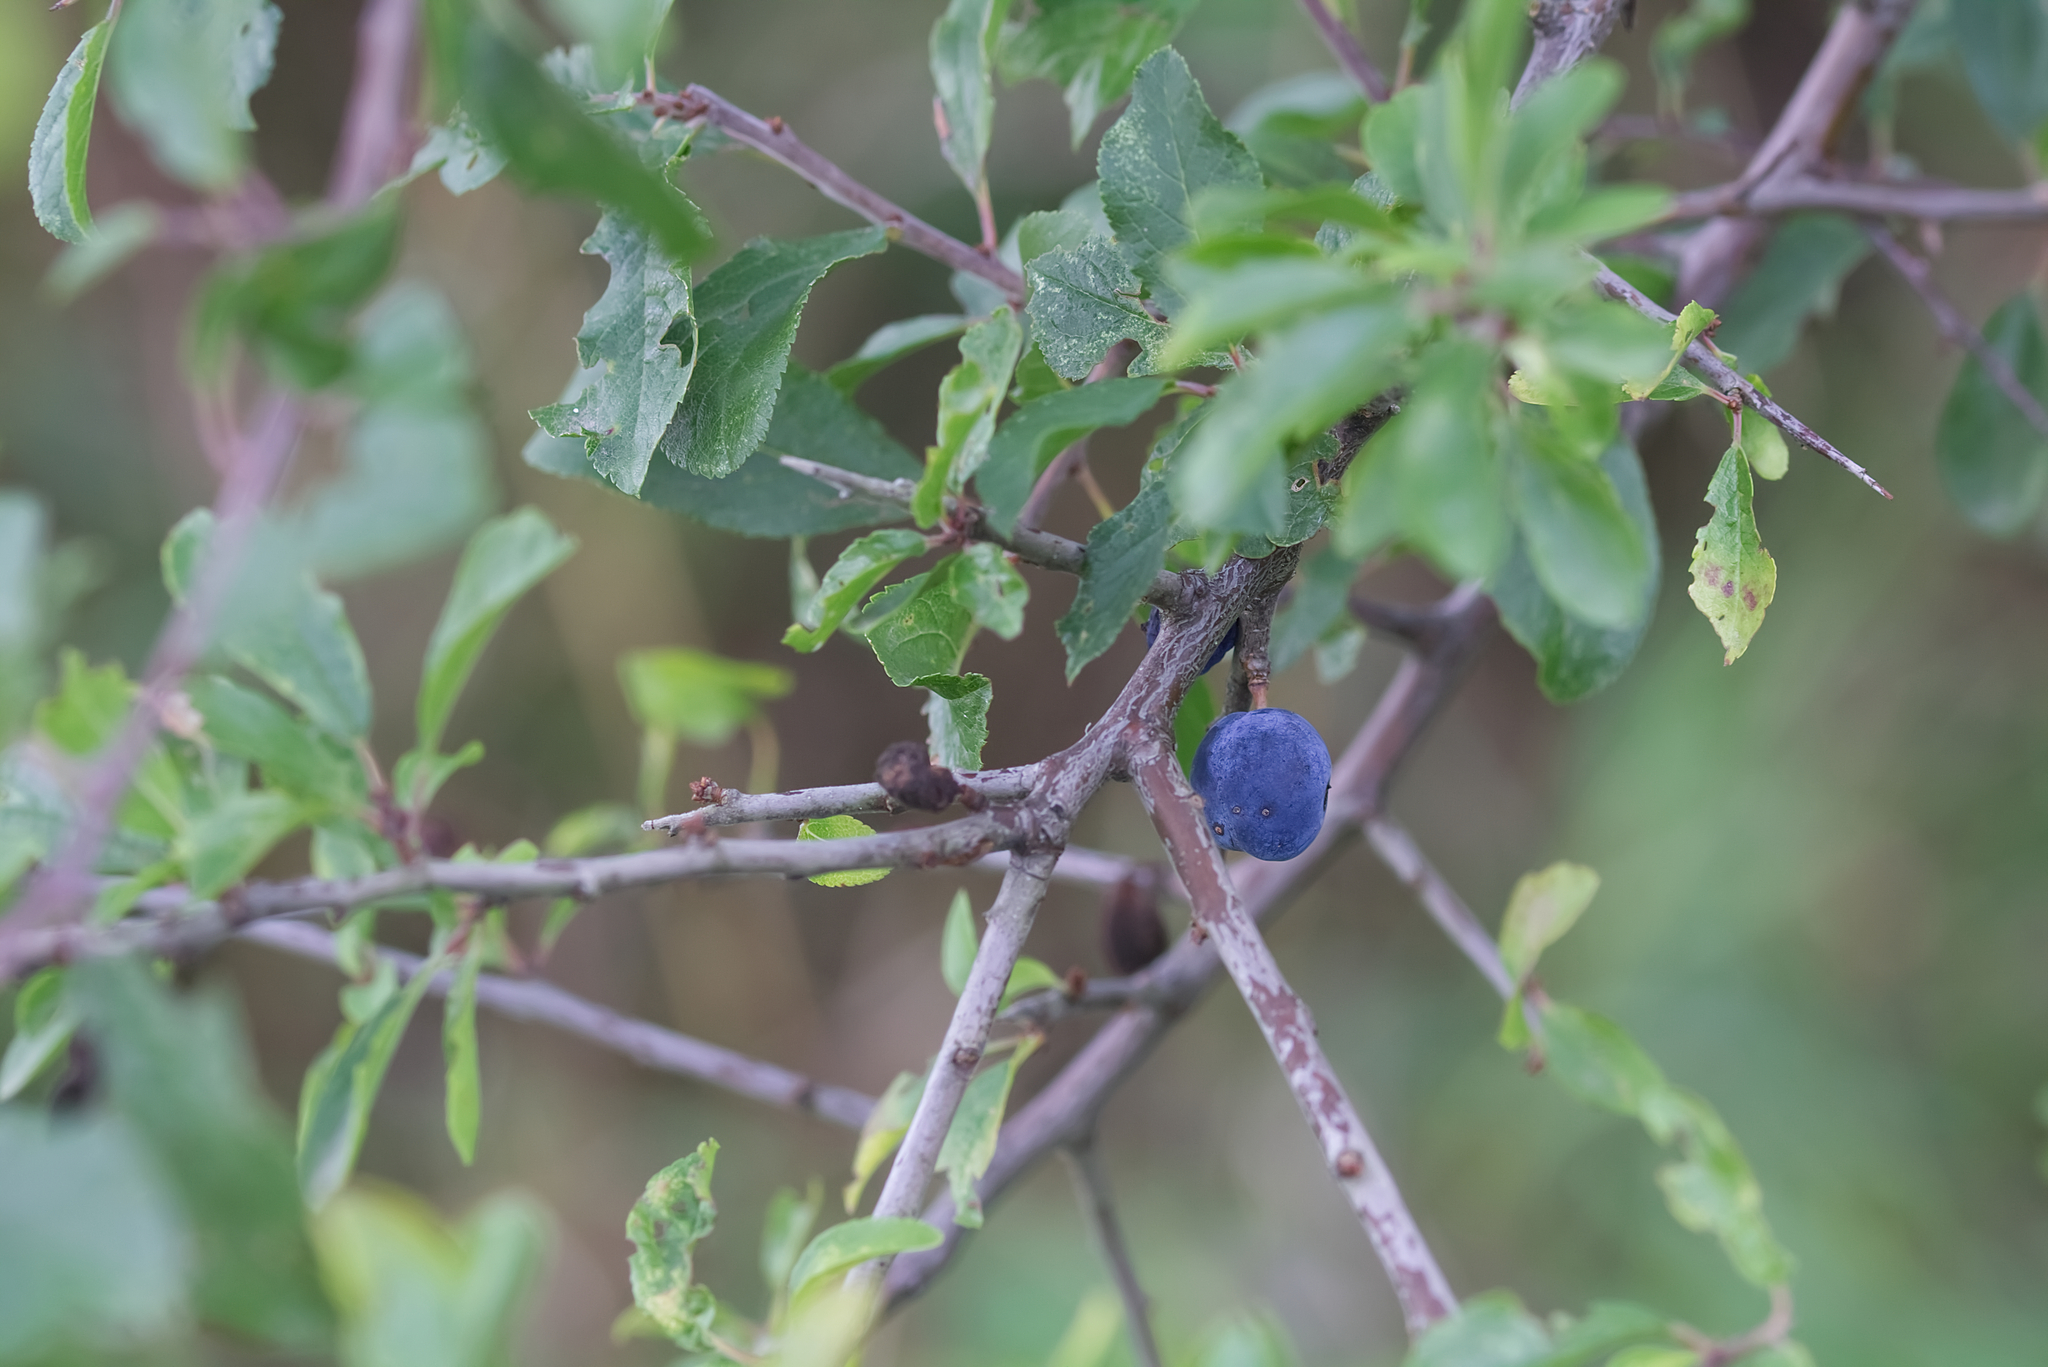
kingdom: Plantae
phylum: Tracheophyta
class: Magnoliopsida
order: Rosales
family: Rosaceae
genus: Prunus
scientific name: Prunus spinosa
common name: Blackthorn
